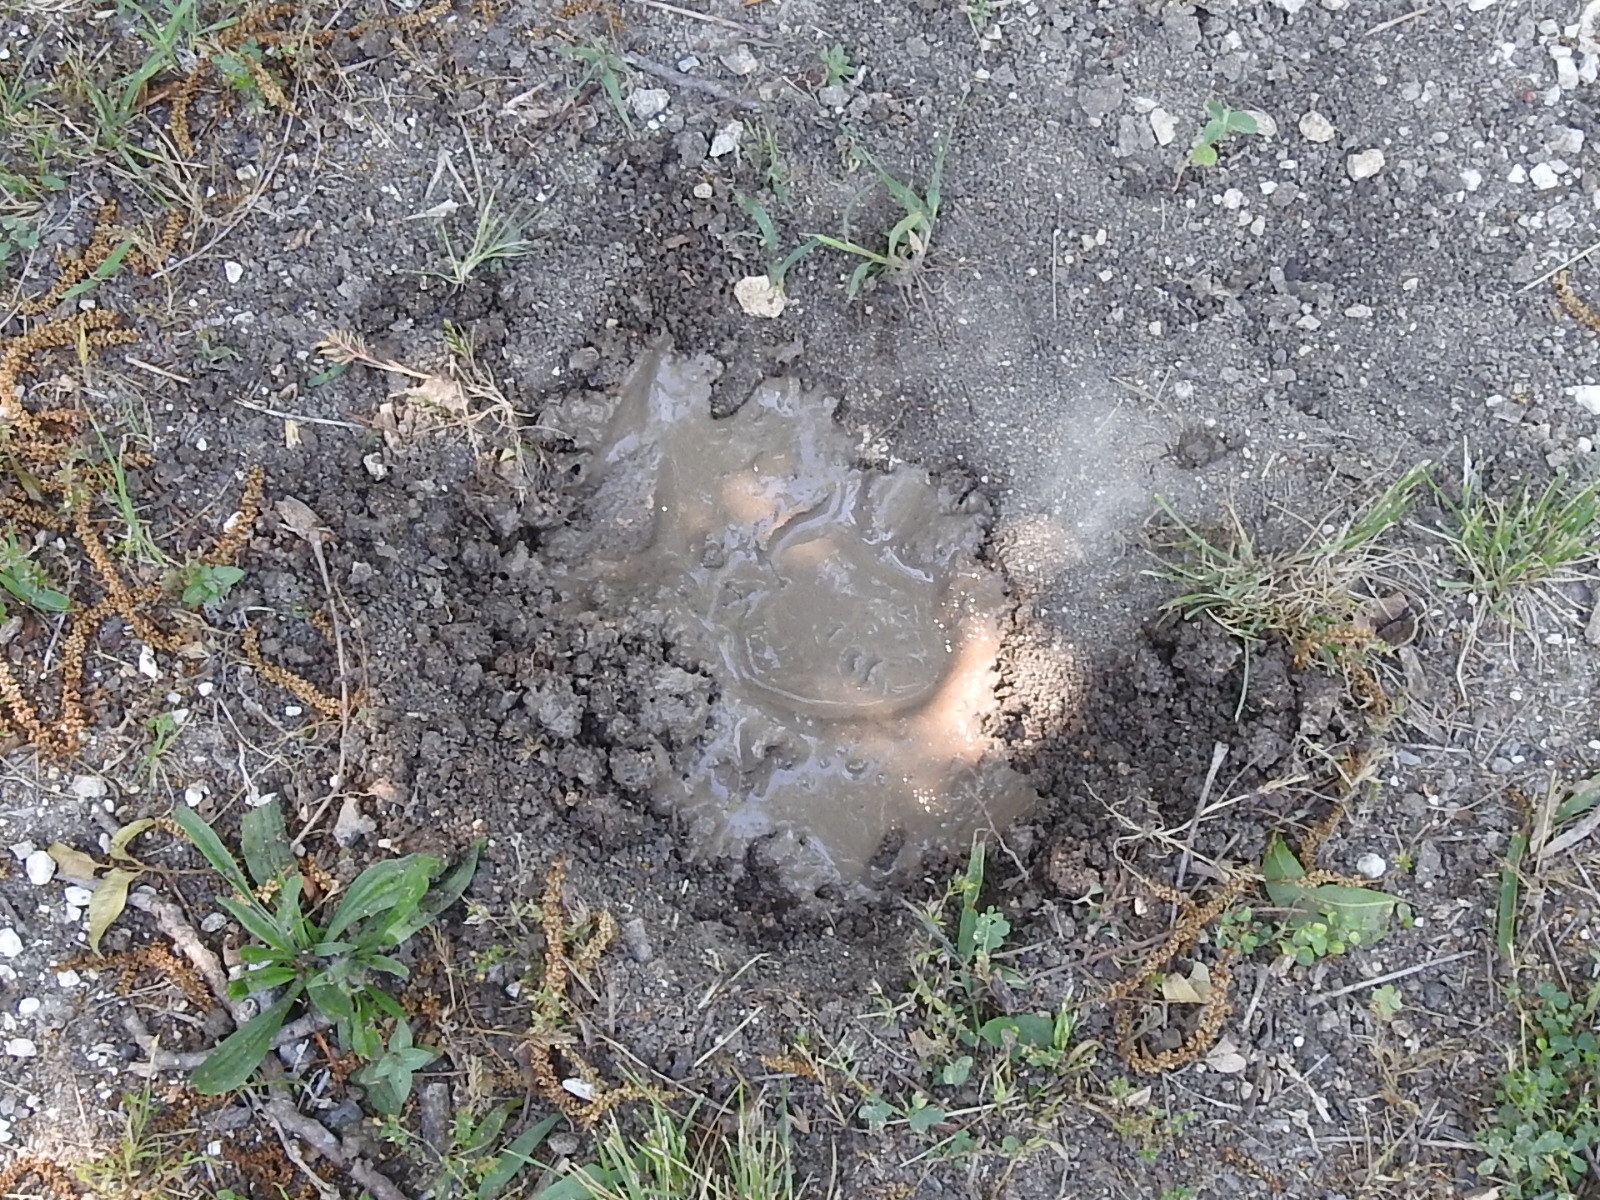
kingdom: Animalia
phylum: Chordata
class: Testudines
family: Emydidae
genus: Trachemys
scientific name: Trachemys scripta
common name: Slider
